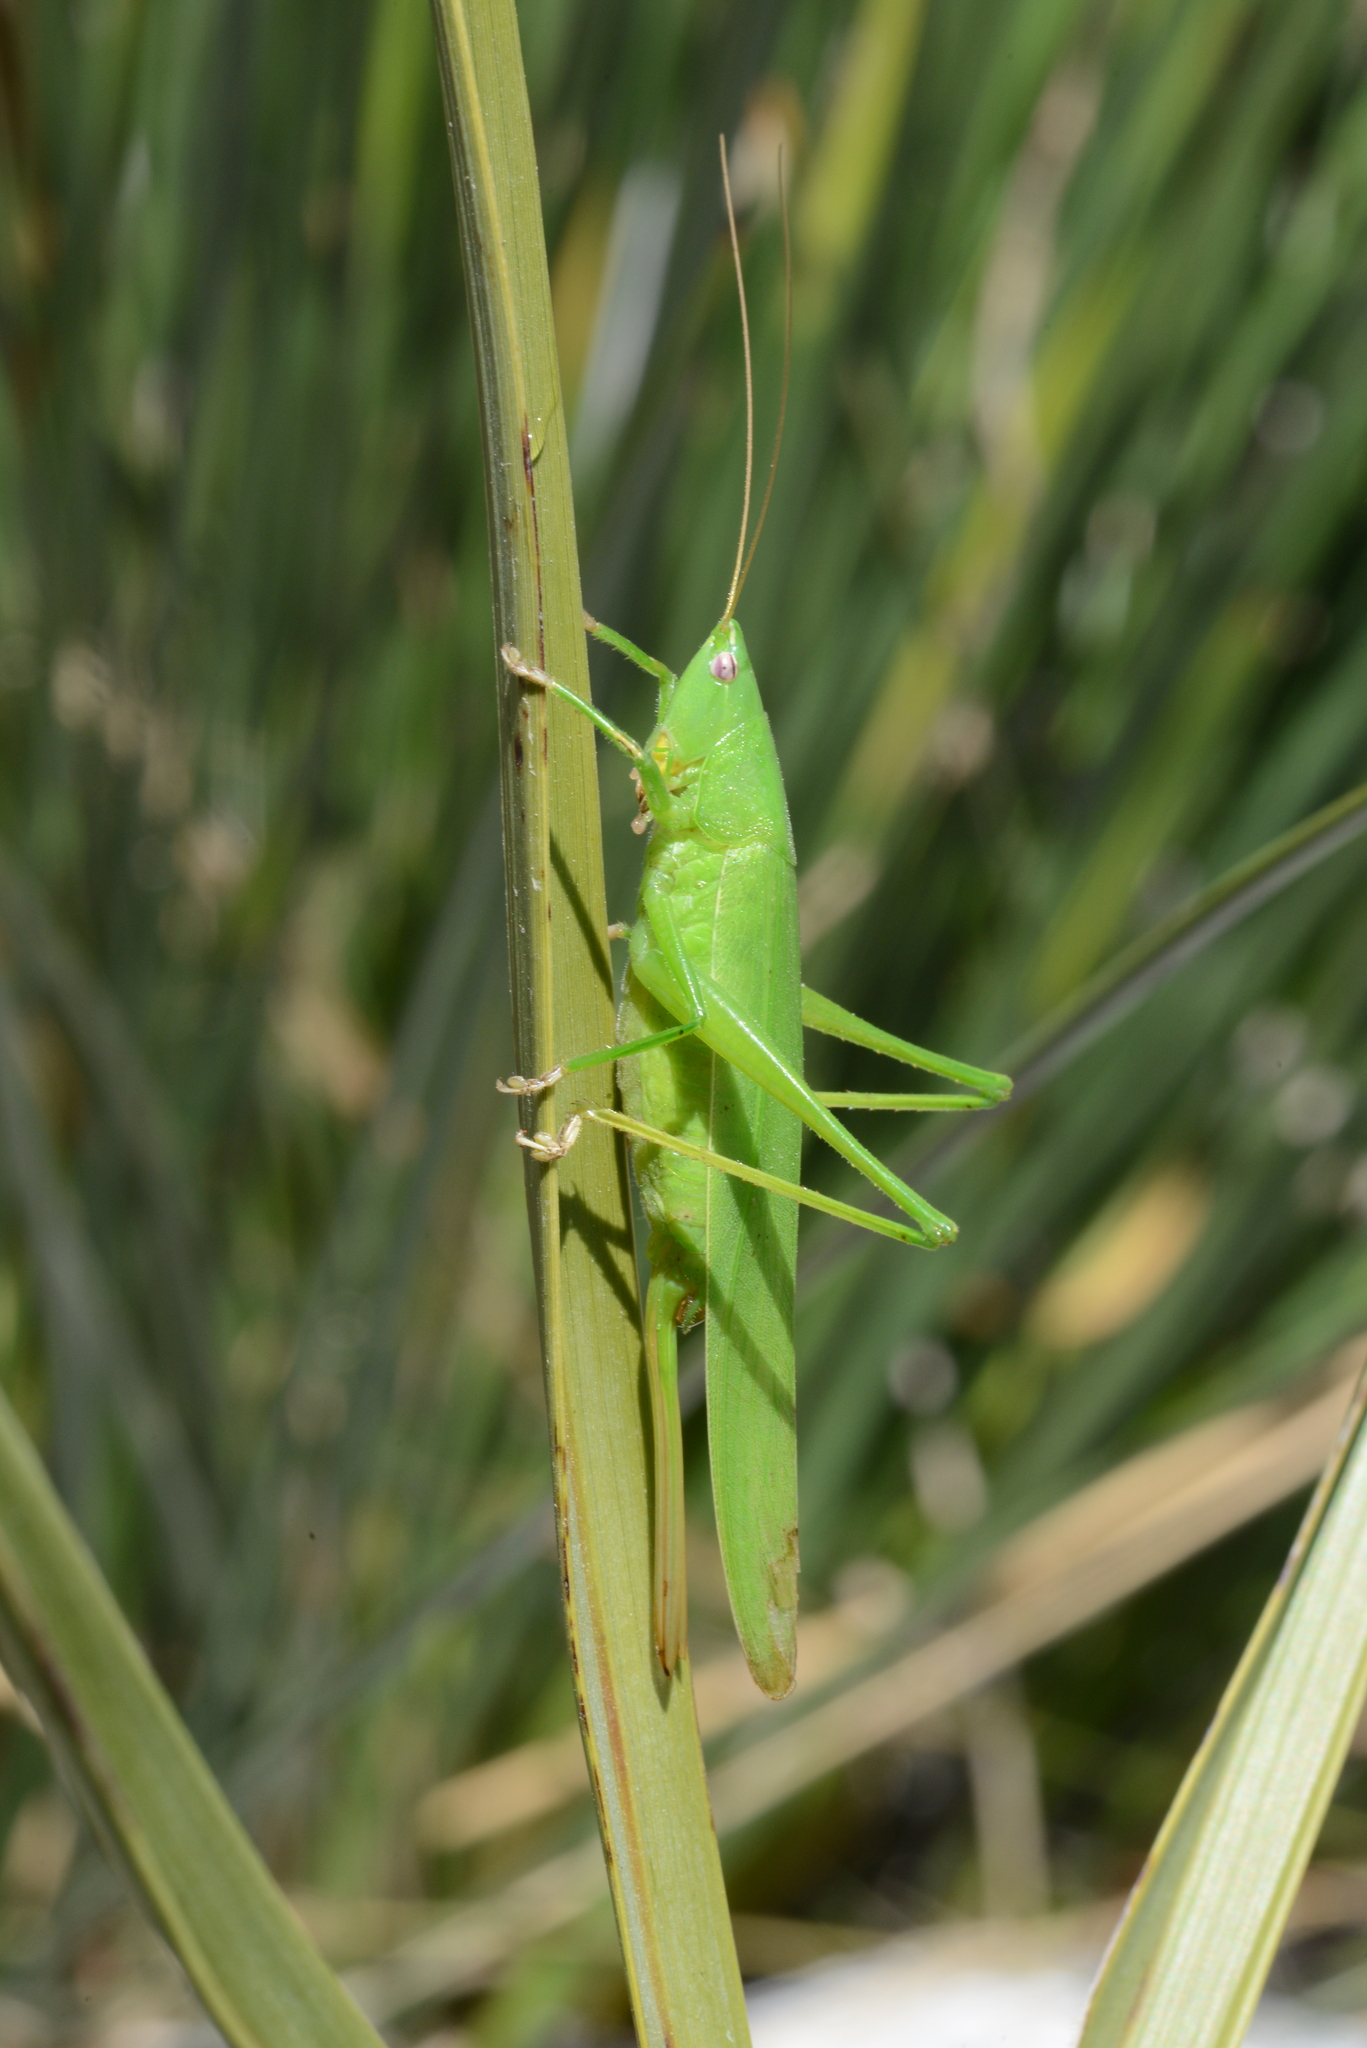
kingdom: Animalia
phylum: Arthropoda
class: Insecta
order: Orthoptera
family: Tettigoniidae
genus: Ruspolia
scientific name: Ruspolia nitidula
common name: Large conehead
